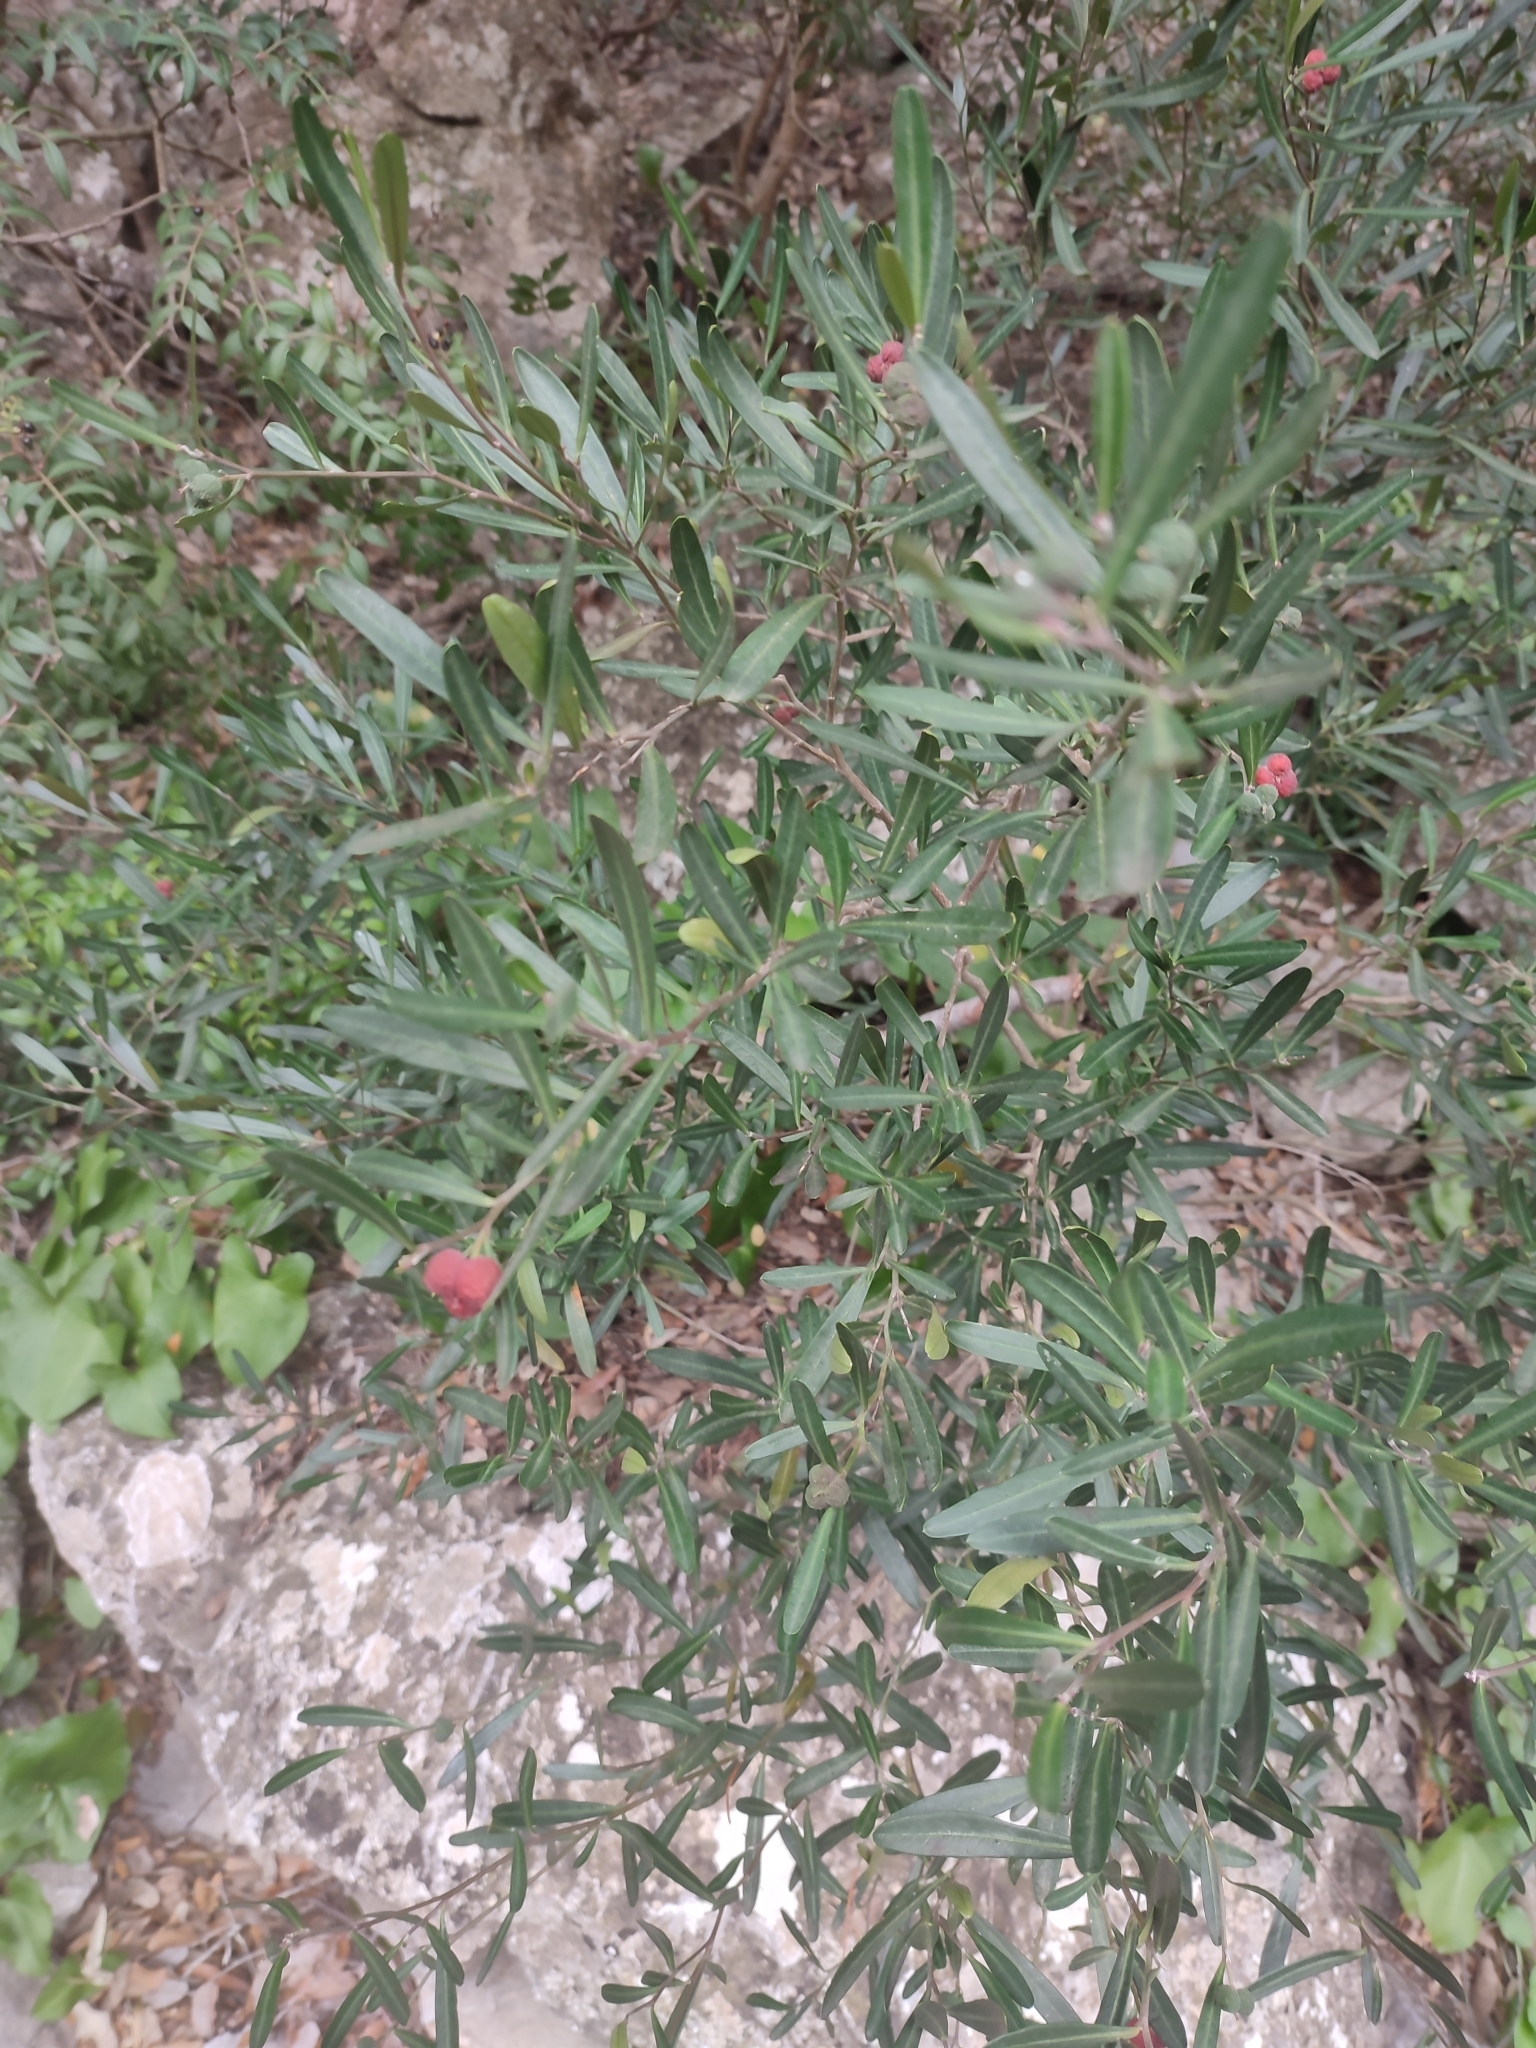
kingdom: Plantae
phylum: Tracheophyta
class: Magnoliopsida
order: Sapindales
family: Rutaceae
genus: Cneorum
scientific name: Cneorum tricoccon
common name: Spurge olive
